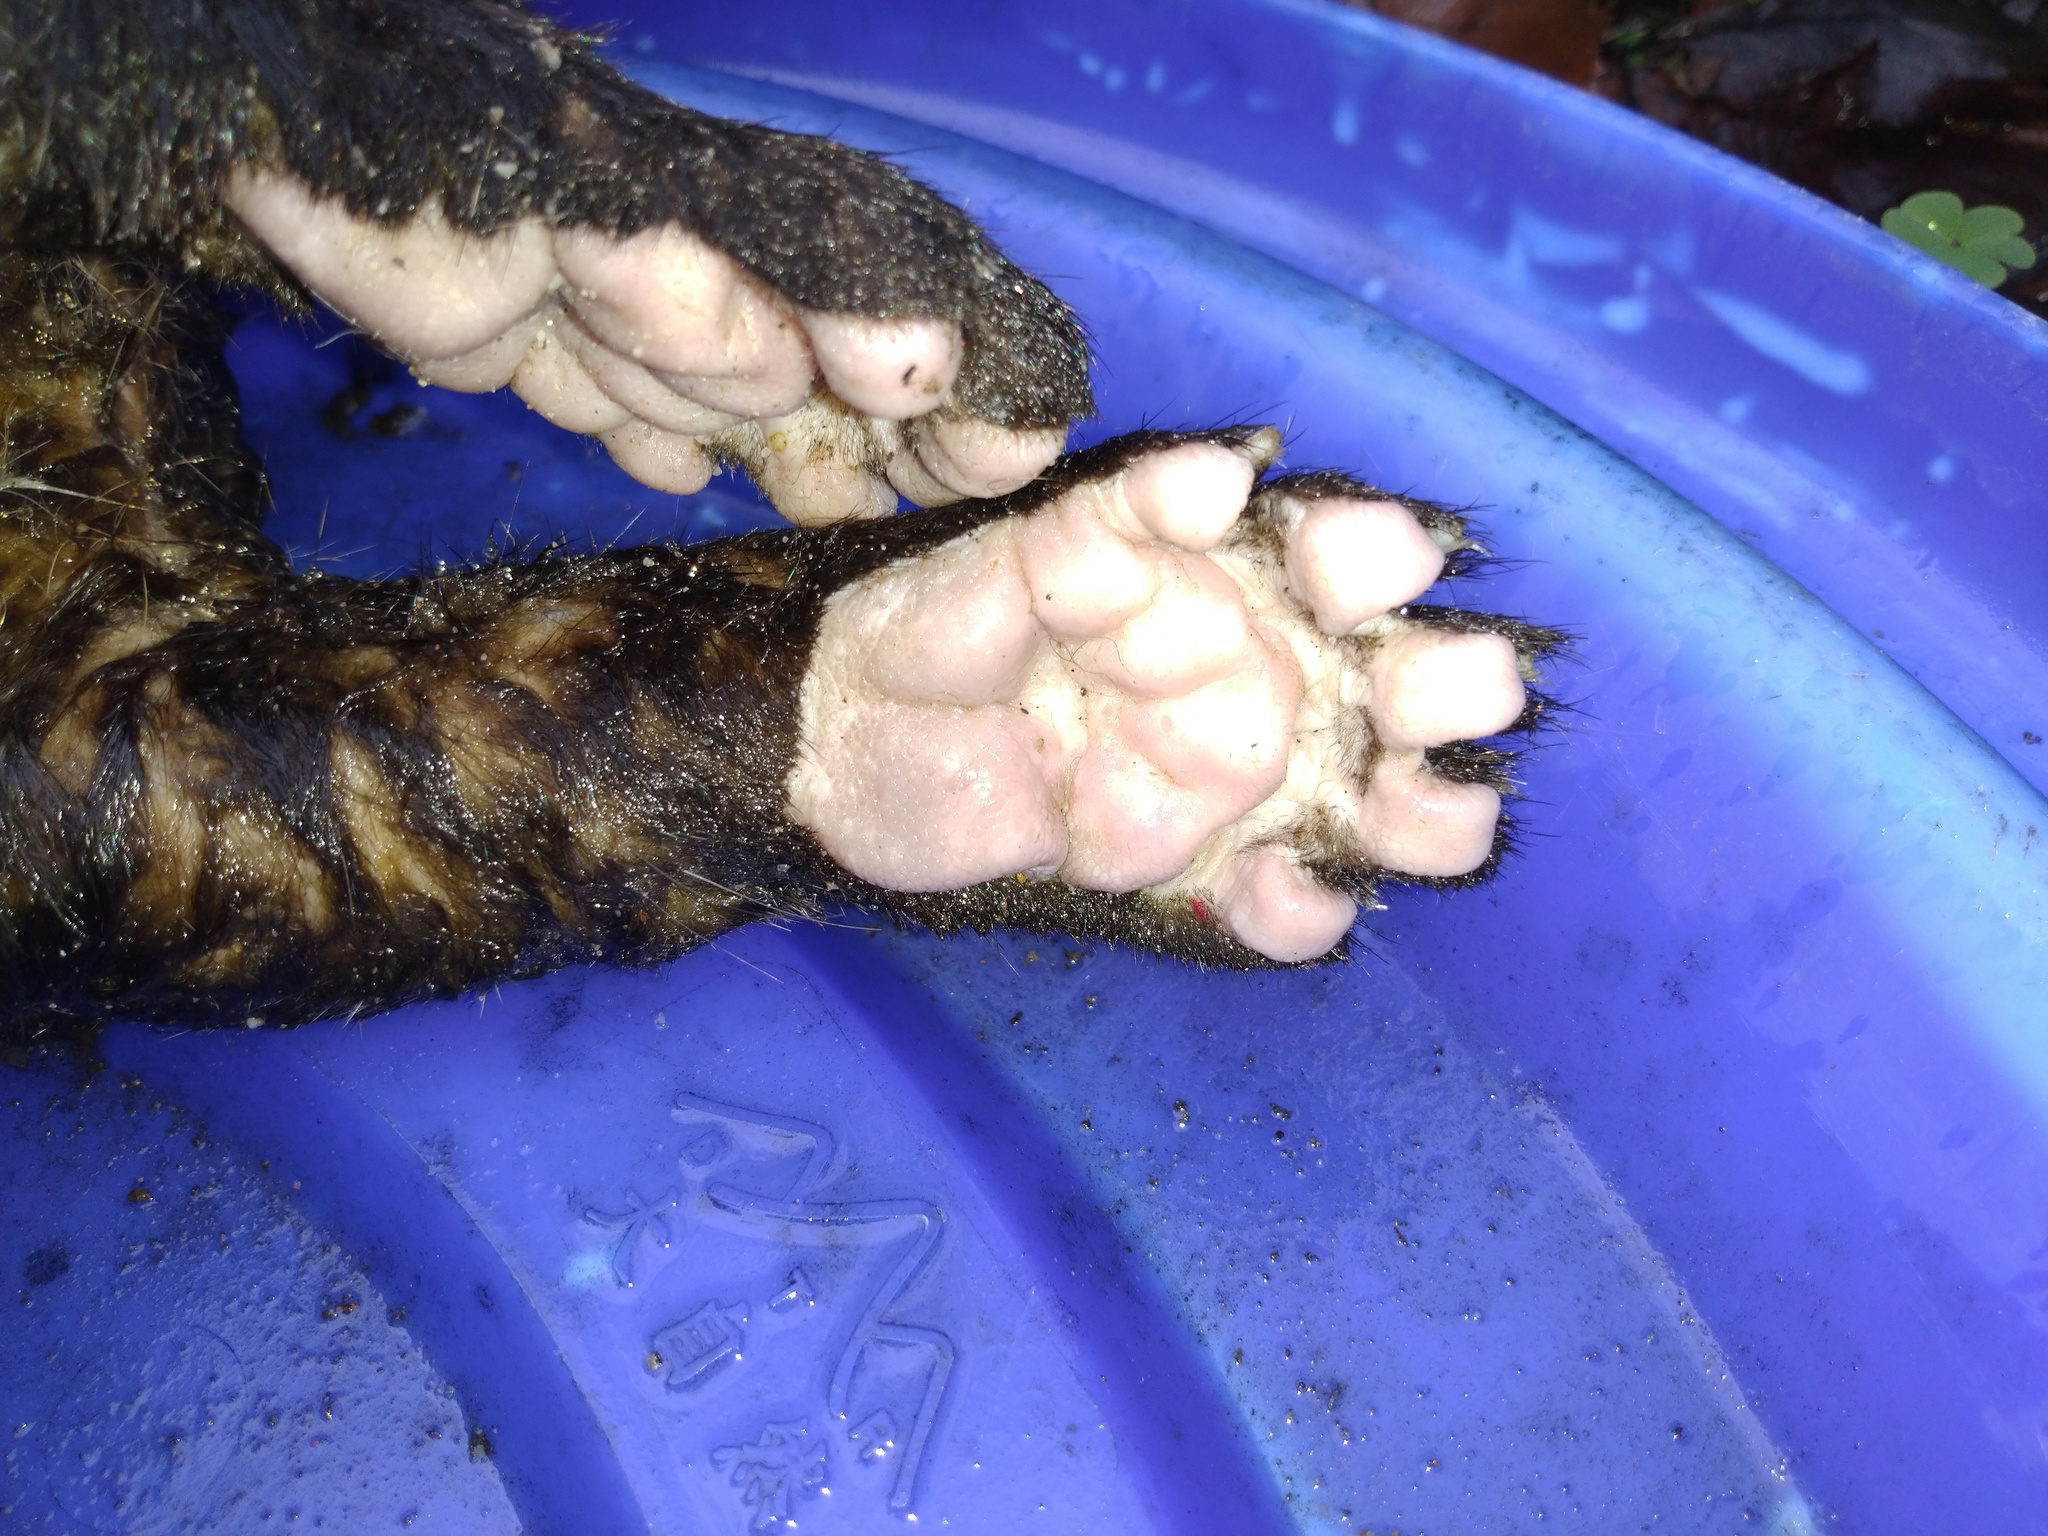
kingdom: Animalia
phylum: Chordata
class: Mammalia
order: Carnivora
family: Viverridae
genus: Paguma
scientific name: Paguma larvata
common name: Masked palm civet
